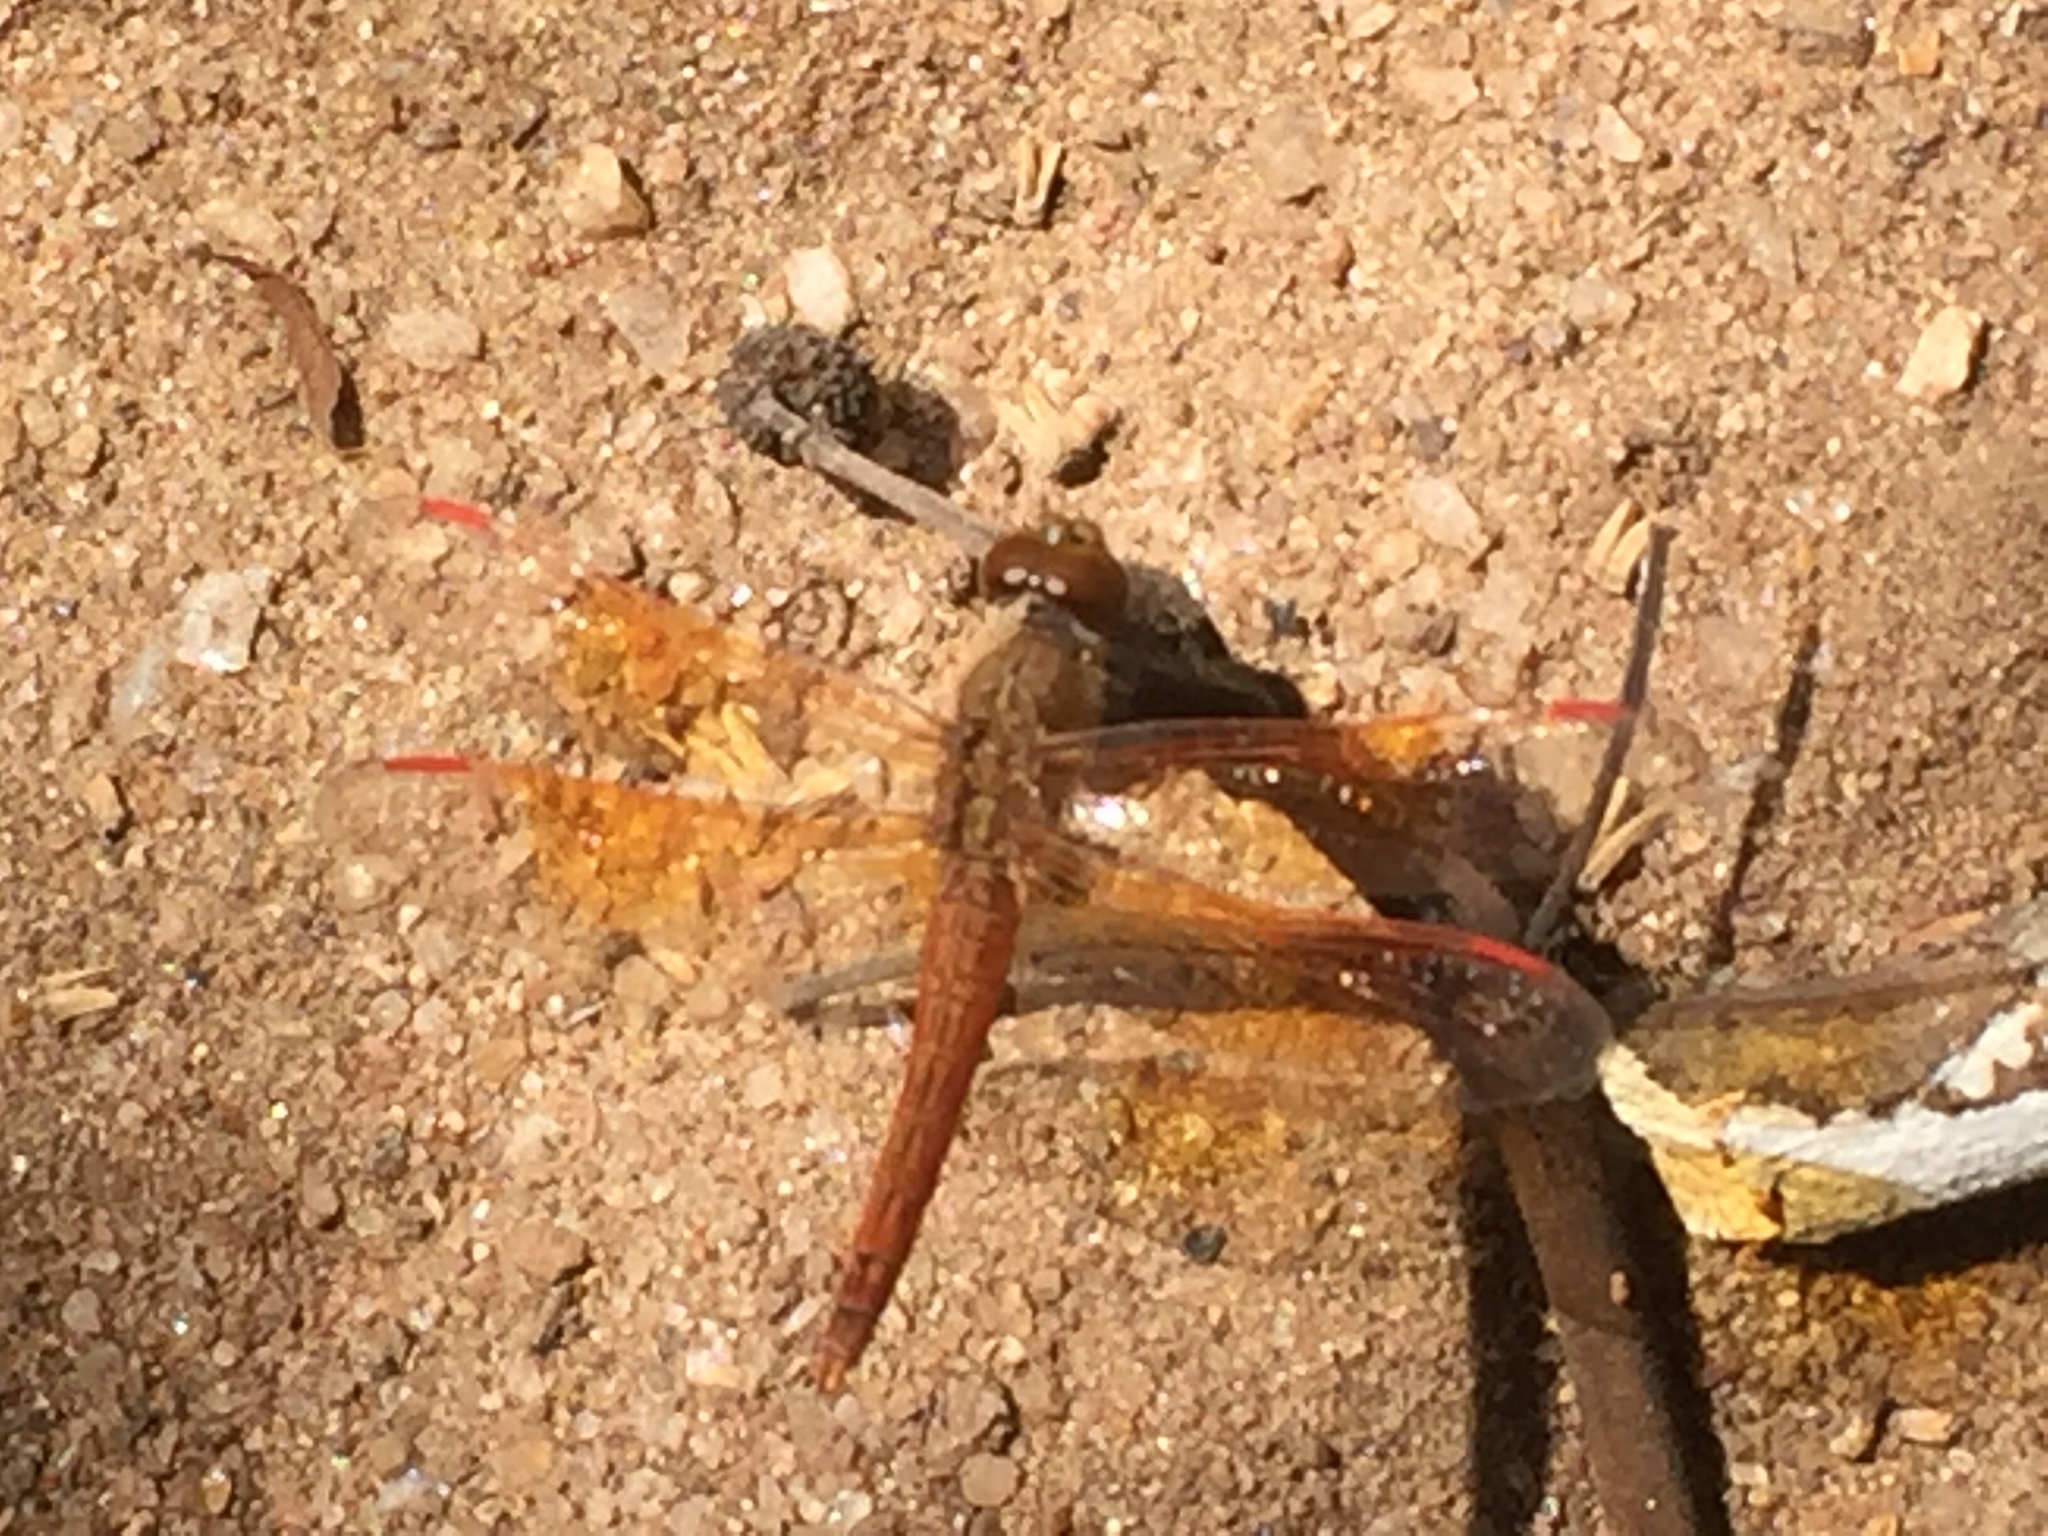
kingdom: Animalia
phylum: Arthropoda
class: Insecta
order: Odonata
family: Libellulidae
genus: Brachythemis
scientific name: Brachythemis contaminata
